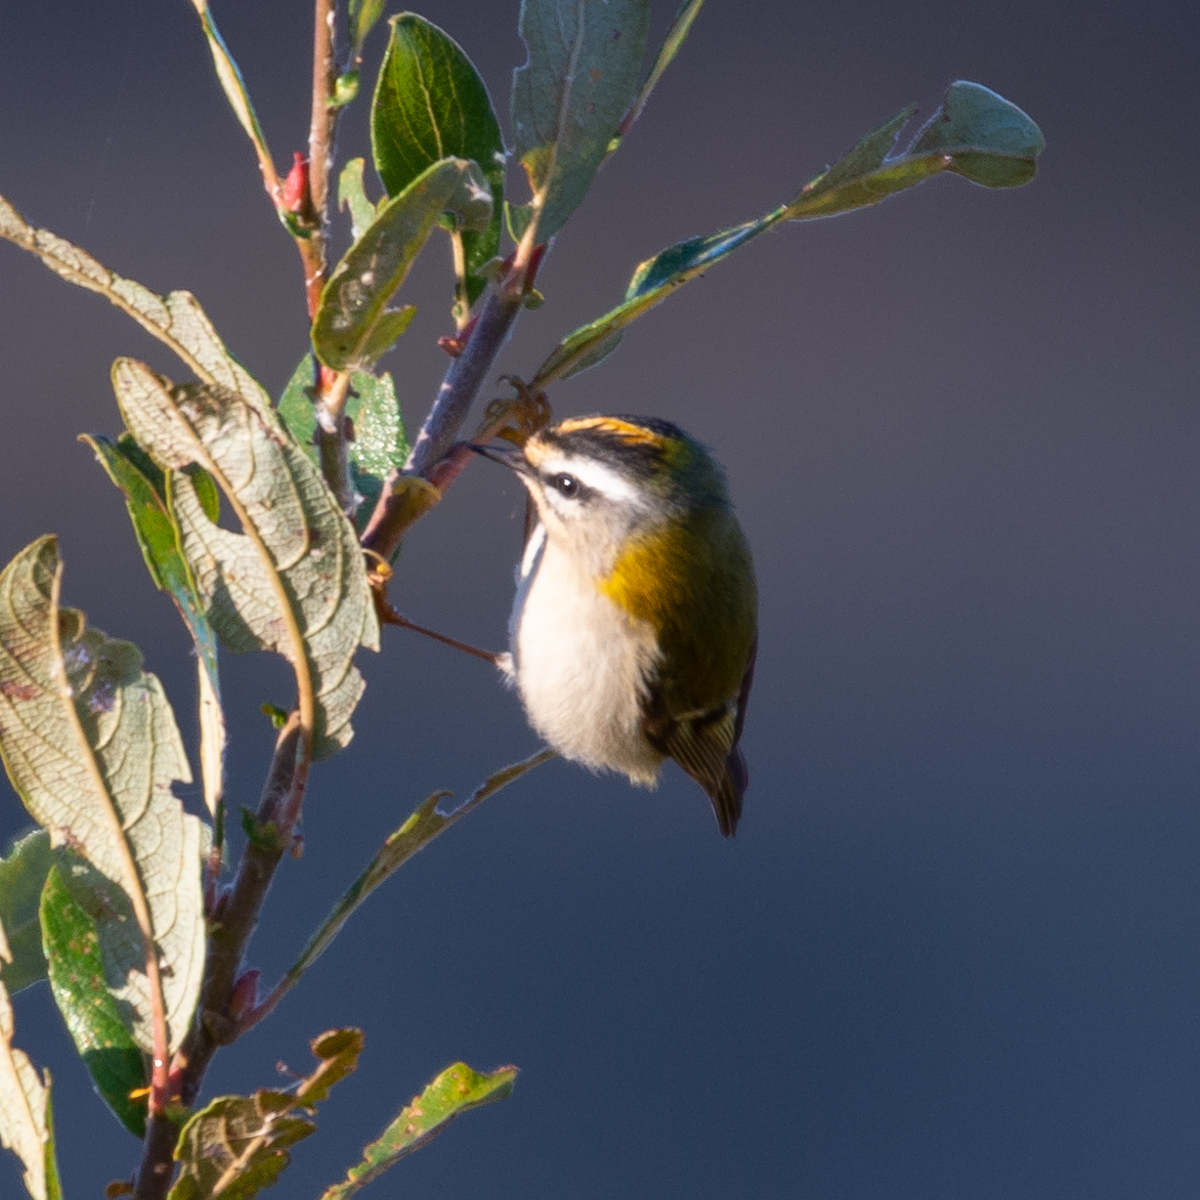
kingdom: Animalia
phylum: Chordata
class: Aves
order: Passeriformes
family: Regulidae
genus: Regulus
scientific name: Regulus ignicapilla
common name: Firecrest
